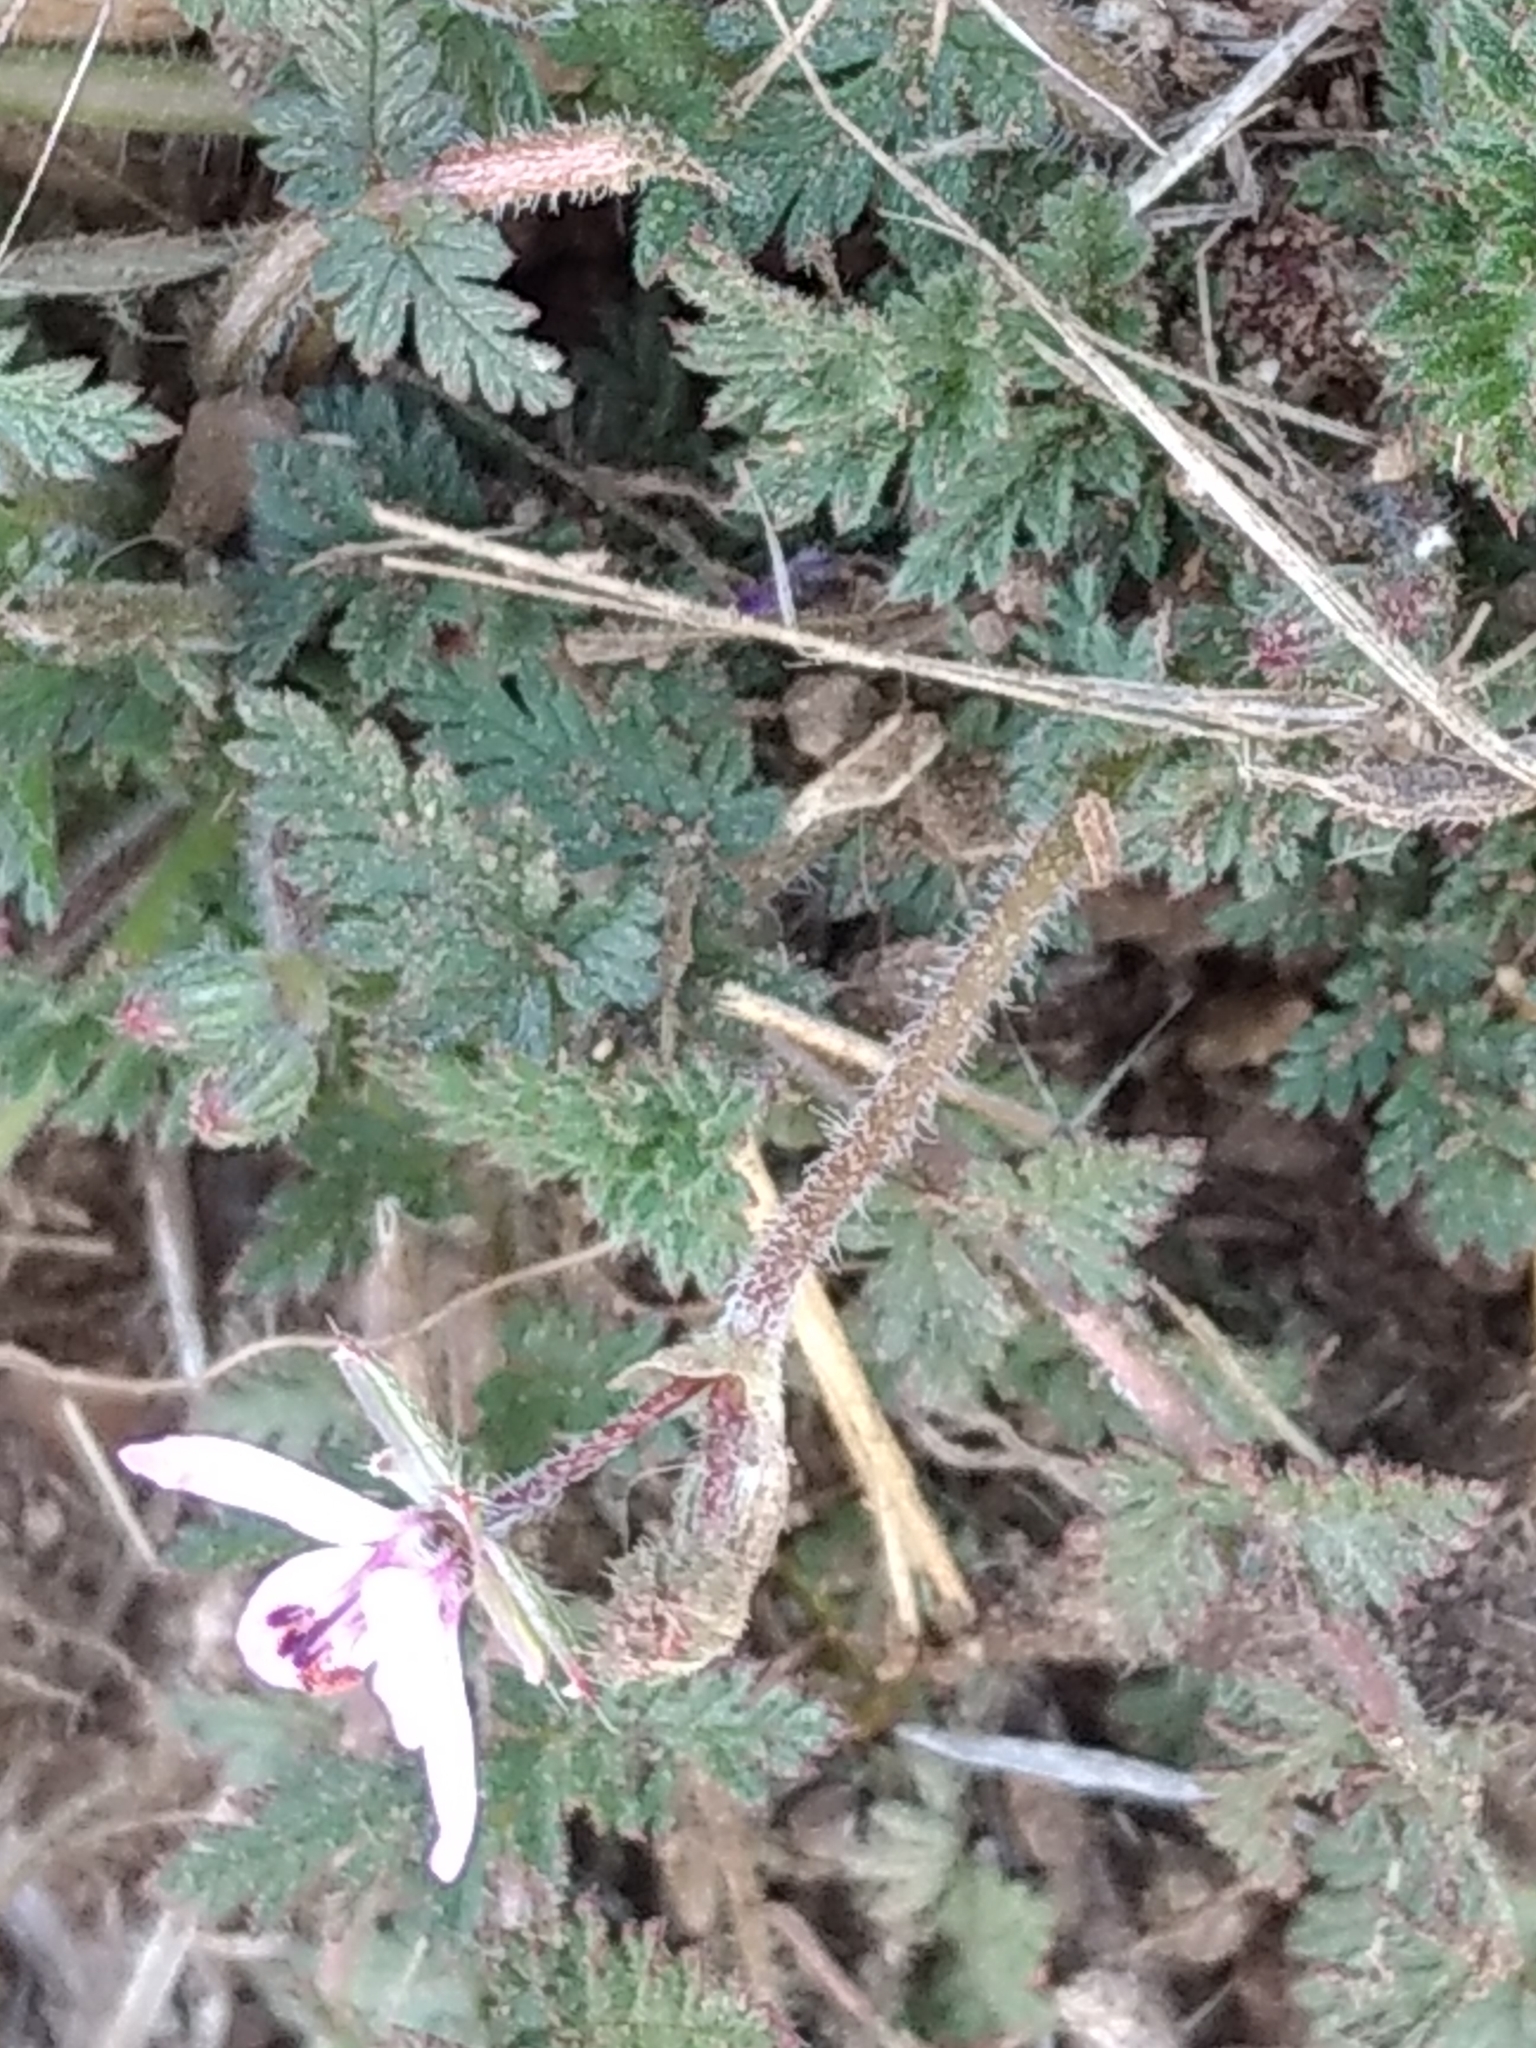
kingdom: Plantae
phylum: Tracheophyta
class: Magnoliopsida
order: Geraniales
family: Geraniaceae
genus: Erodium
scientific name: Erodium cicutarium
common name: Common stork's-bill
